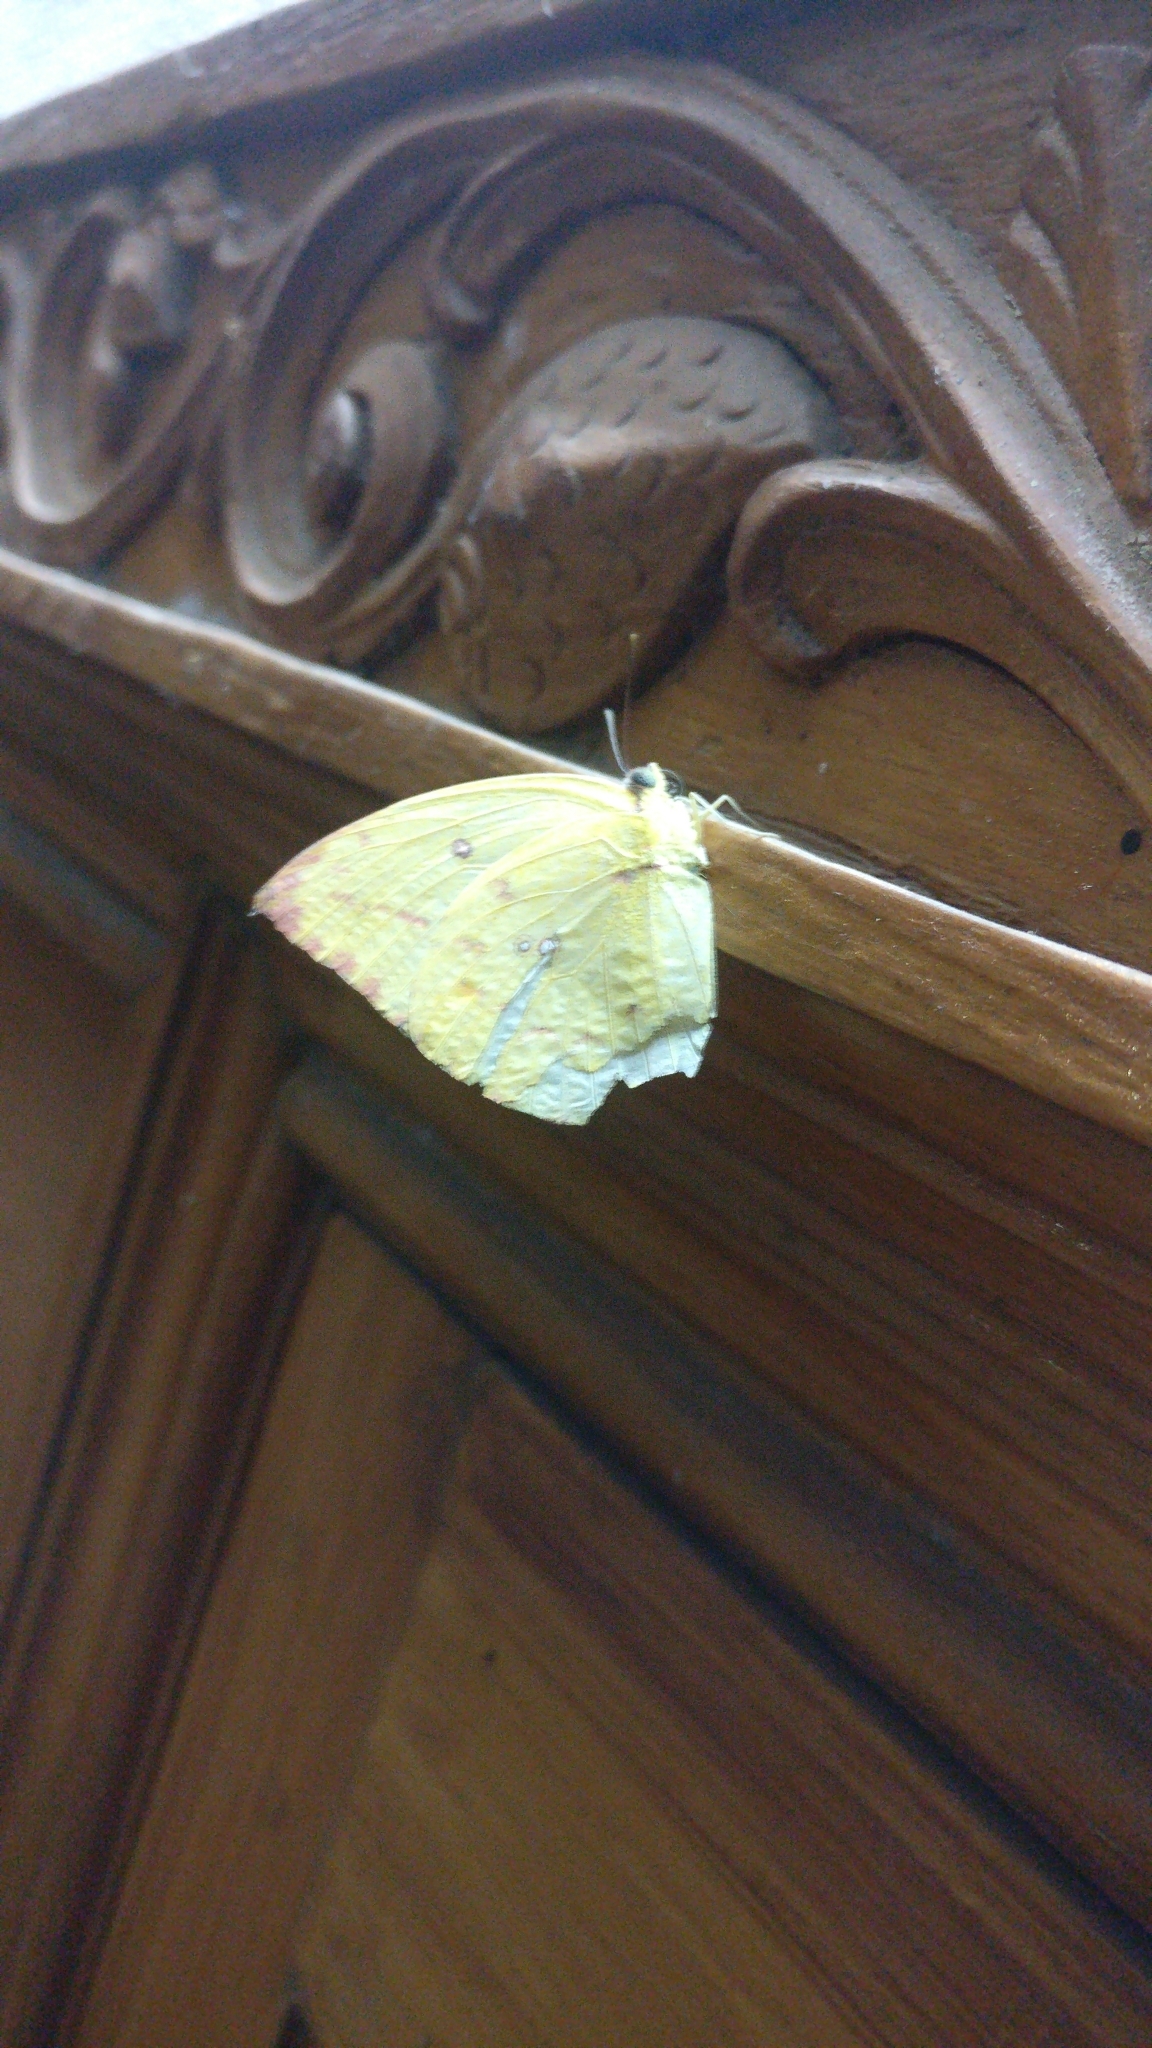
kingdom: Animalia
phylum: Arthropoda
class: Insecta
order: Lepidoptera
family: Pieridae
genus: Catopsilia
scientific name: Catopsilia pomona
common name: Common emigrant
